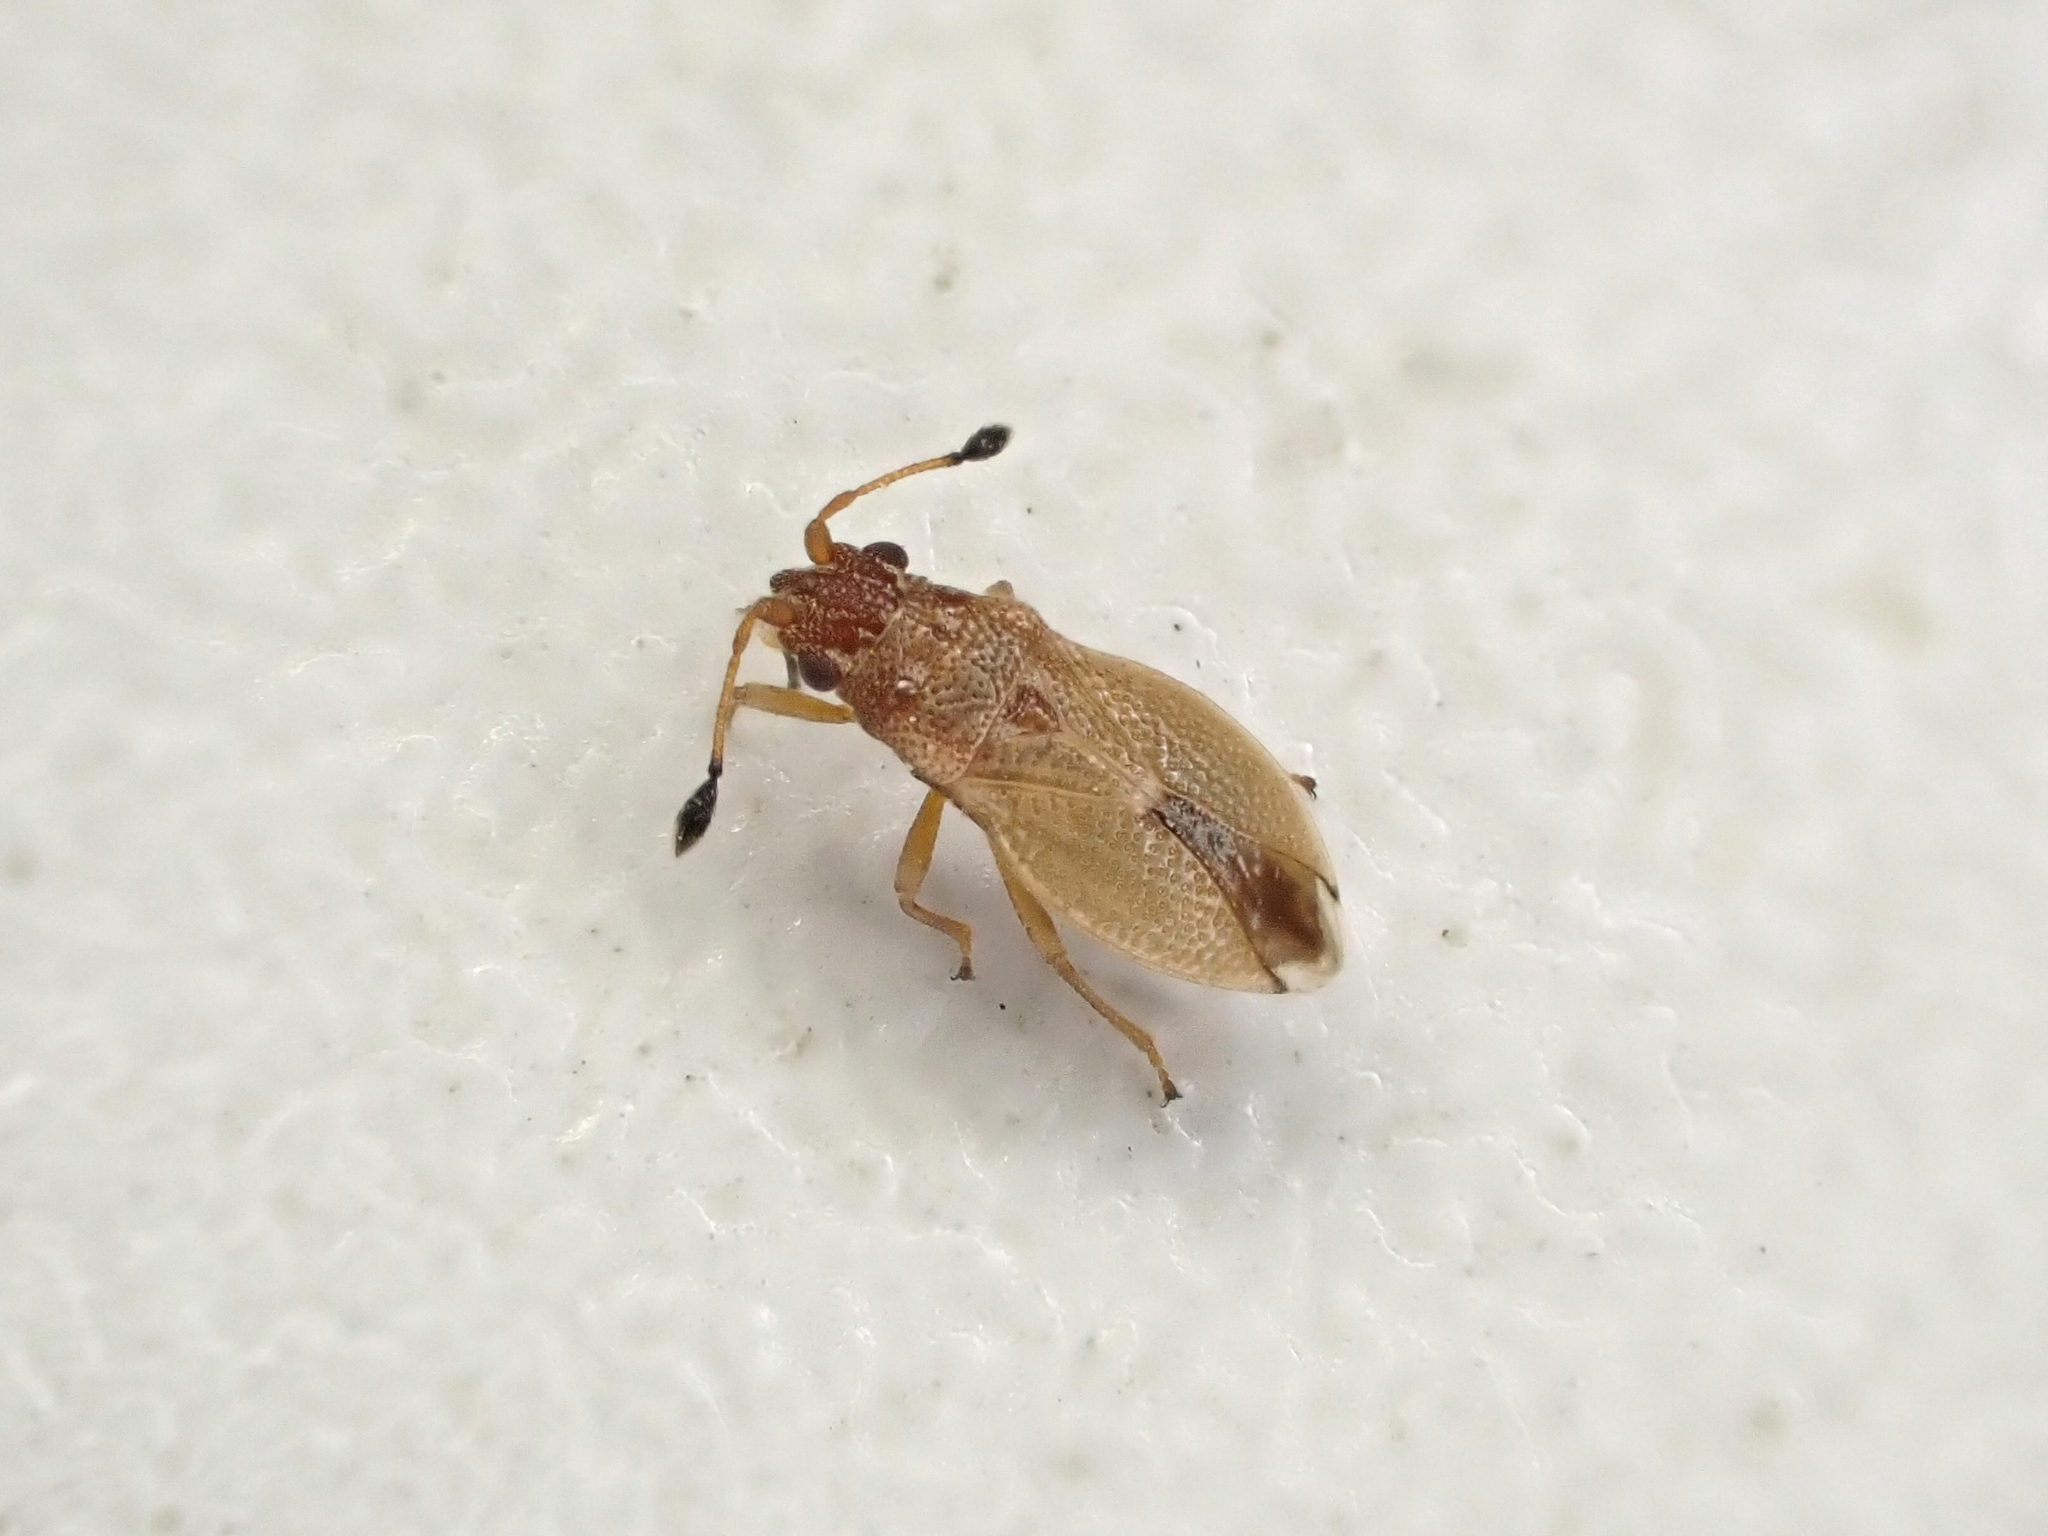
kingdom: Animalia
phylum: Arthropoda
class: Insecta
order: Hemiptera
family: Cymidae
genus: Cymus
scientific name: Cymus novaezelandiae
